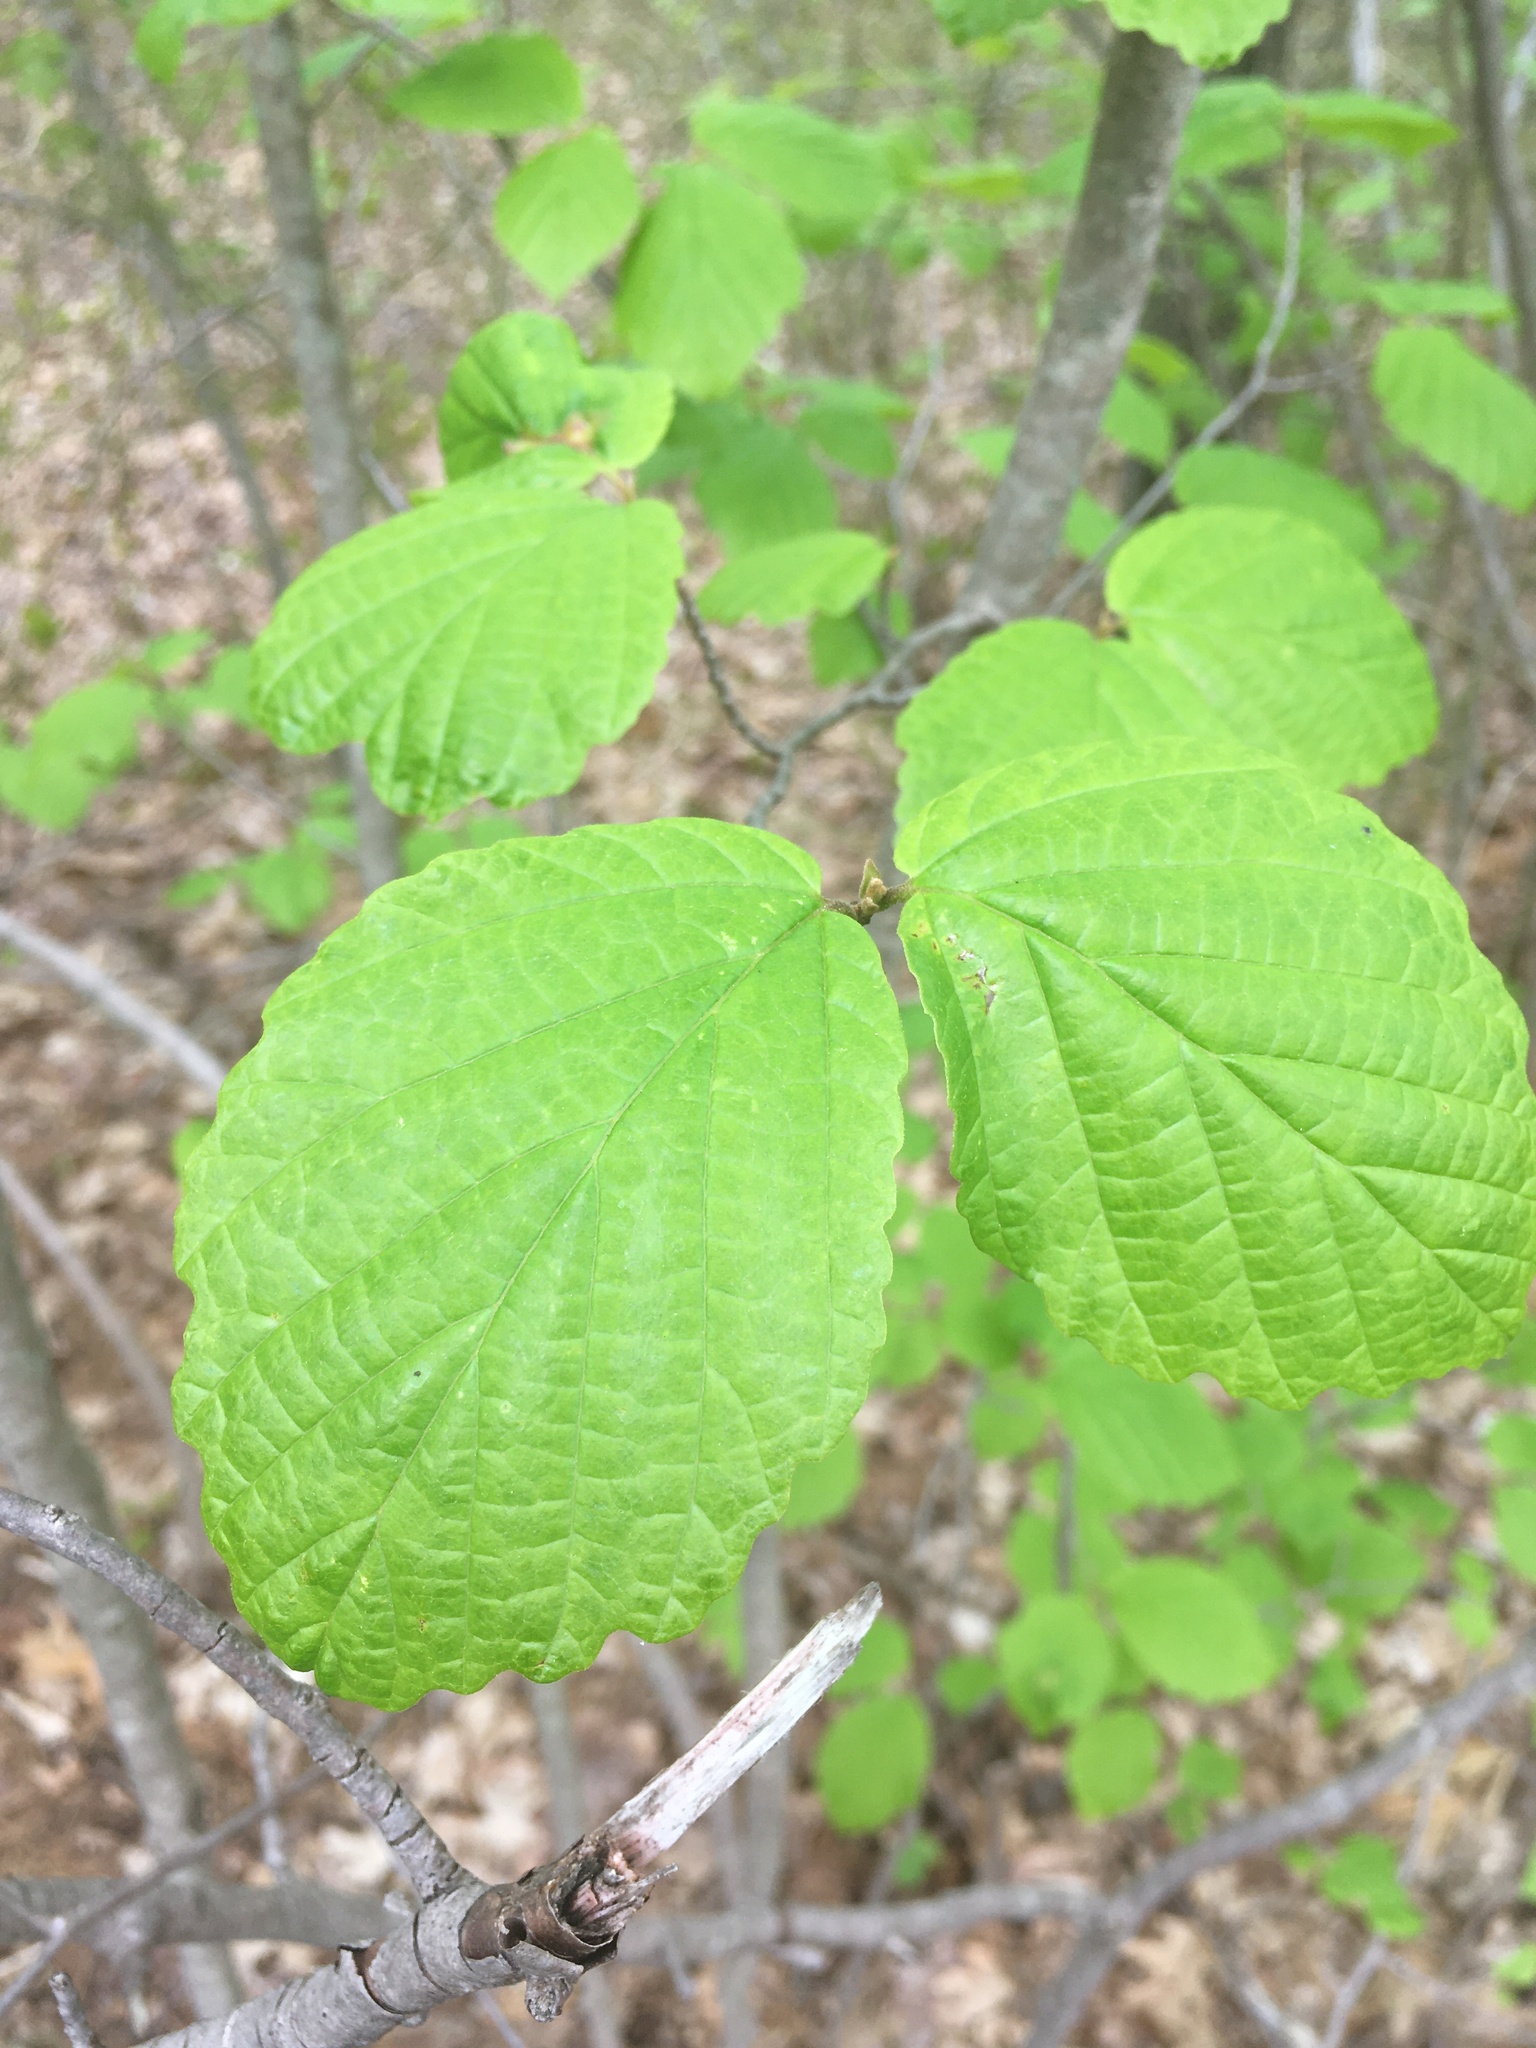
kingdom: Plantae
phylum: Tracheophyta
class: Magnoliopsida
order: Saxifragales
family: Hamamelidaceae
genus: Hamamelis
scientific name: Hamamelis virginiana
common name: Witch-hazel
